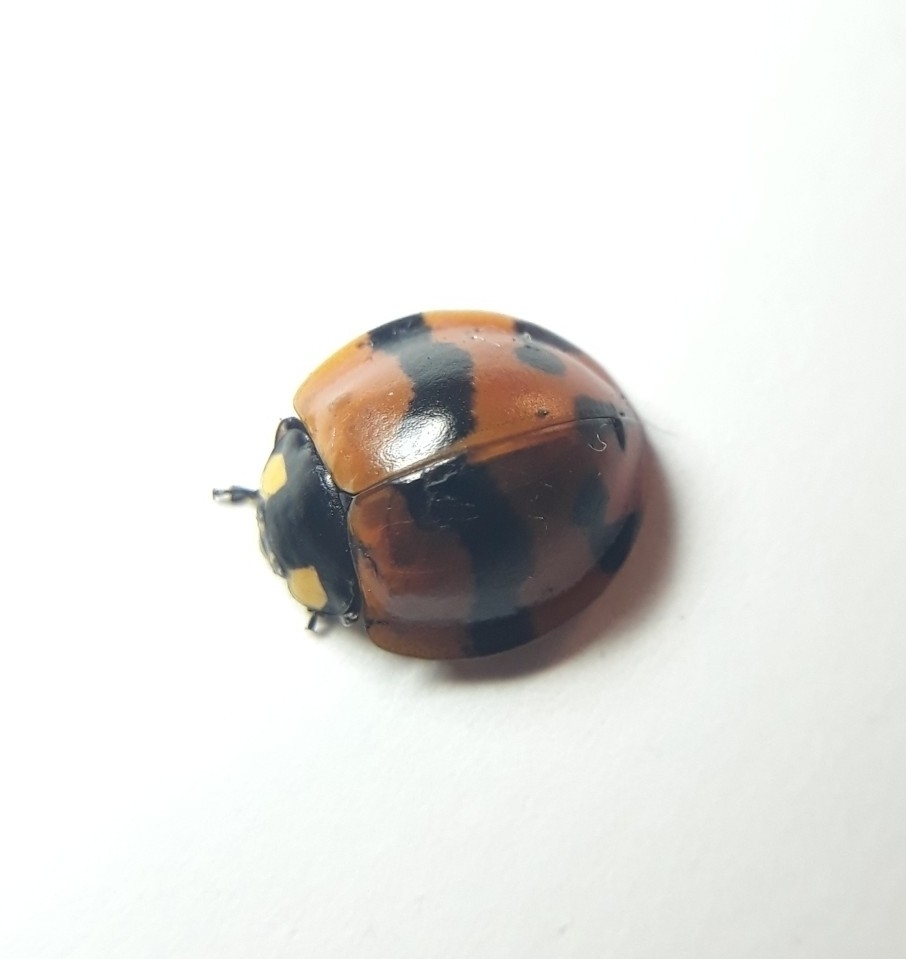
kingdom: Animalia
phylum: Arthropoda
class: Insecta
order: Coleoptera
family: Coccinellidae
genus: Neda
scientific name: Neda norrisi
